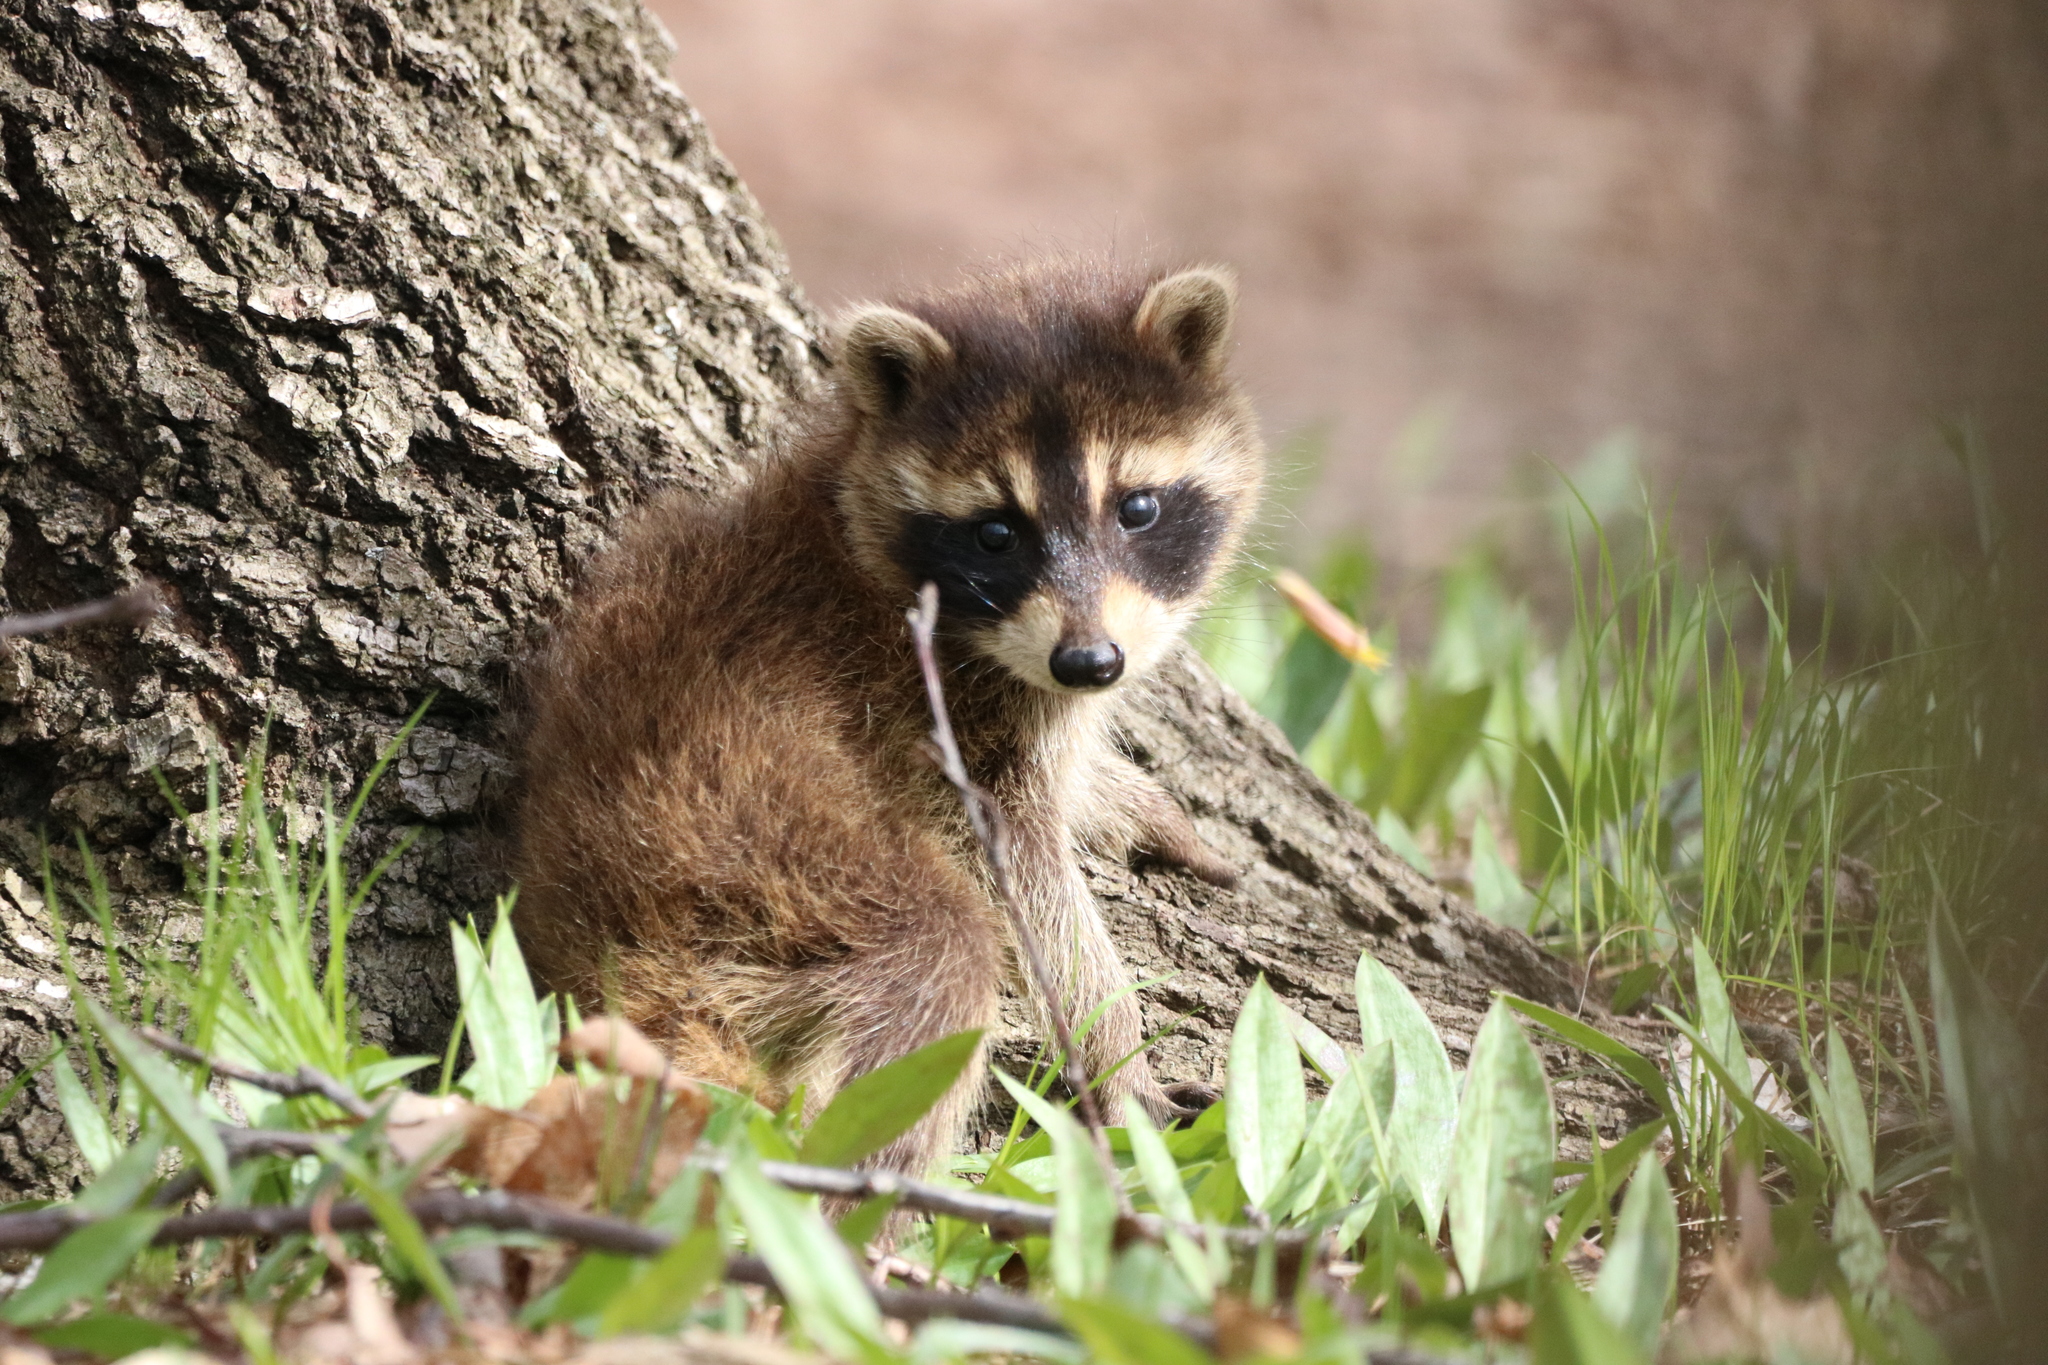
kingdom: Animalia
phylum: Chordata
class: Mammalia
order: Carnivora
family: Procyonidae
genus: Procyon
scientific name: Procyon lotor
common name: Raccoon
